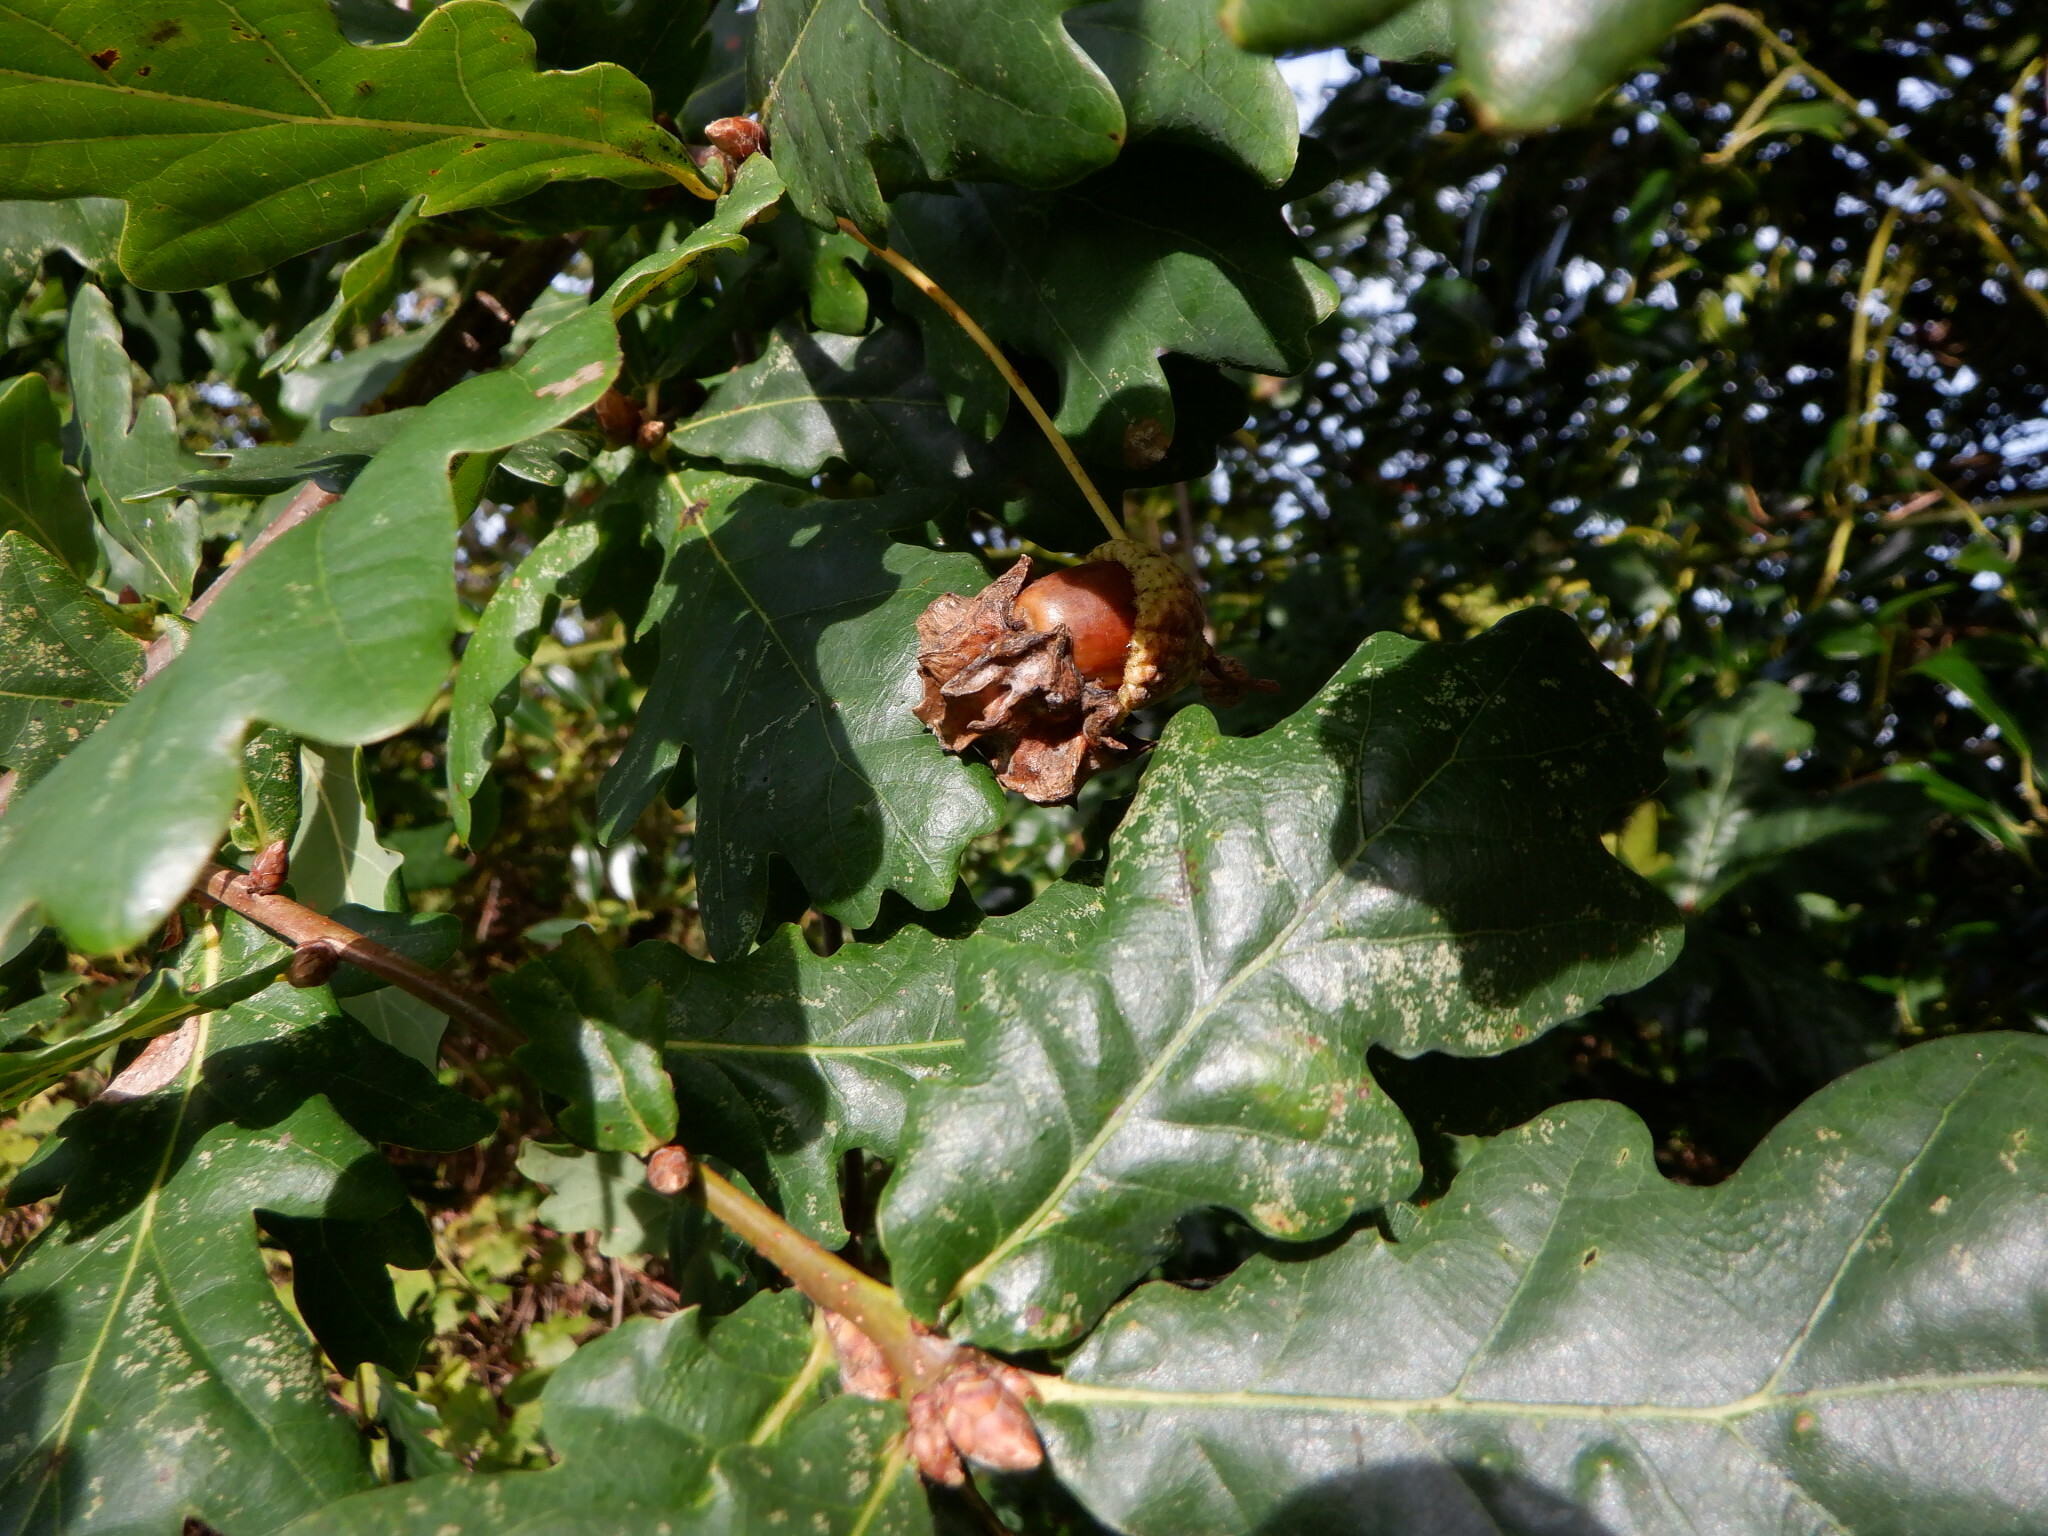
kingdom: Animalia
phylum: Arthropoda
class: Insecta
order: Hymenoptera
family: Cynipidae
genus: Andricus
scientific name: Andricus quercuscalicis
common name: Knopper gall
